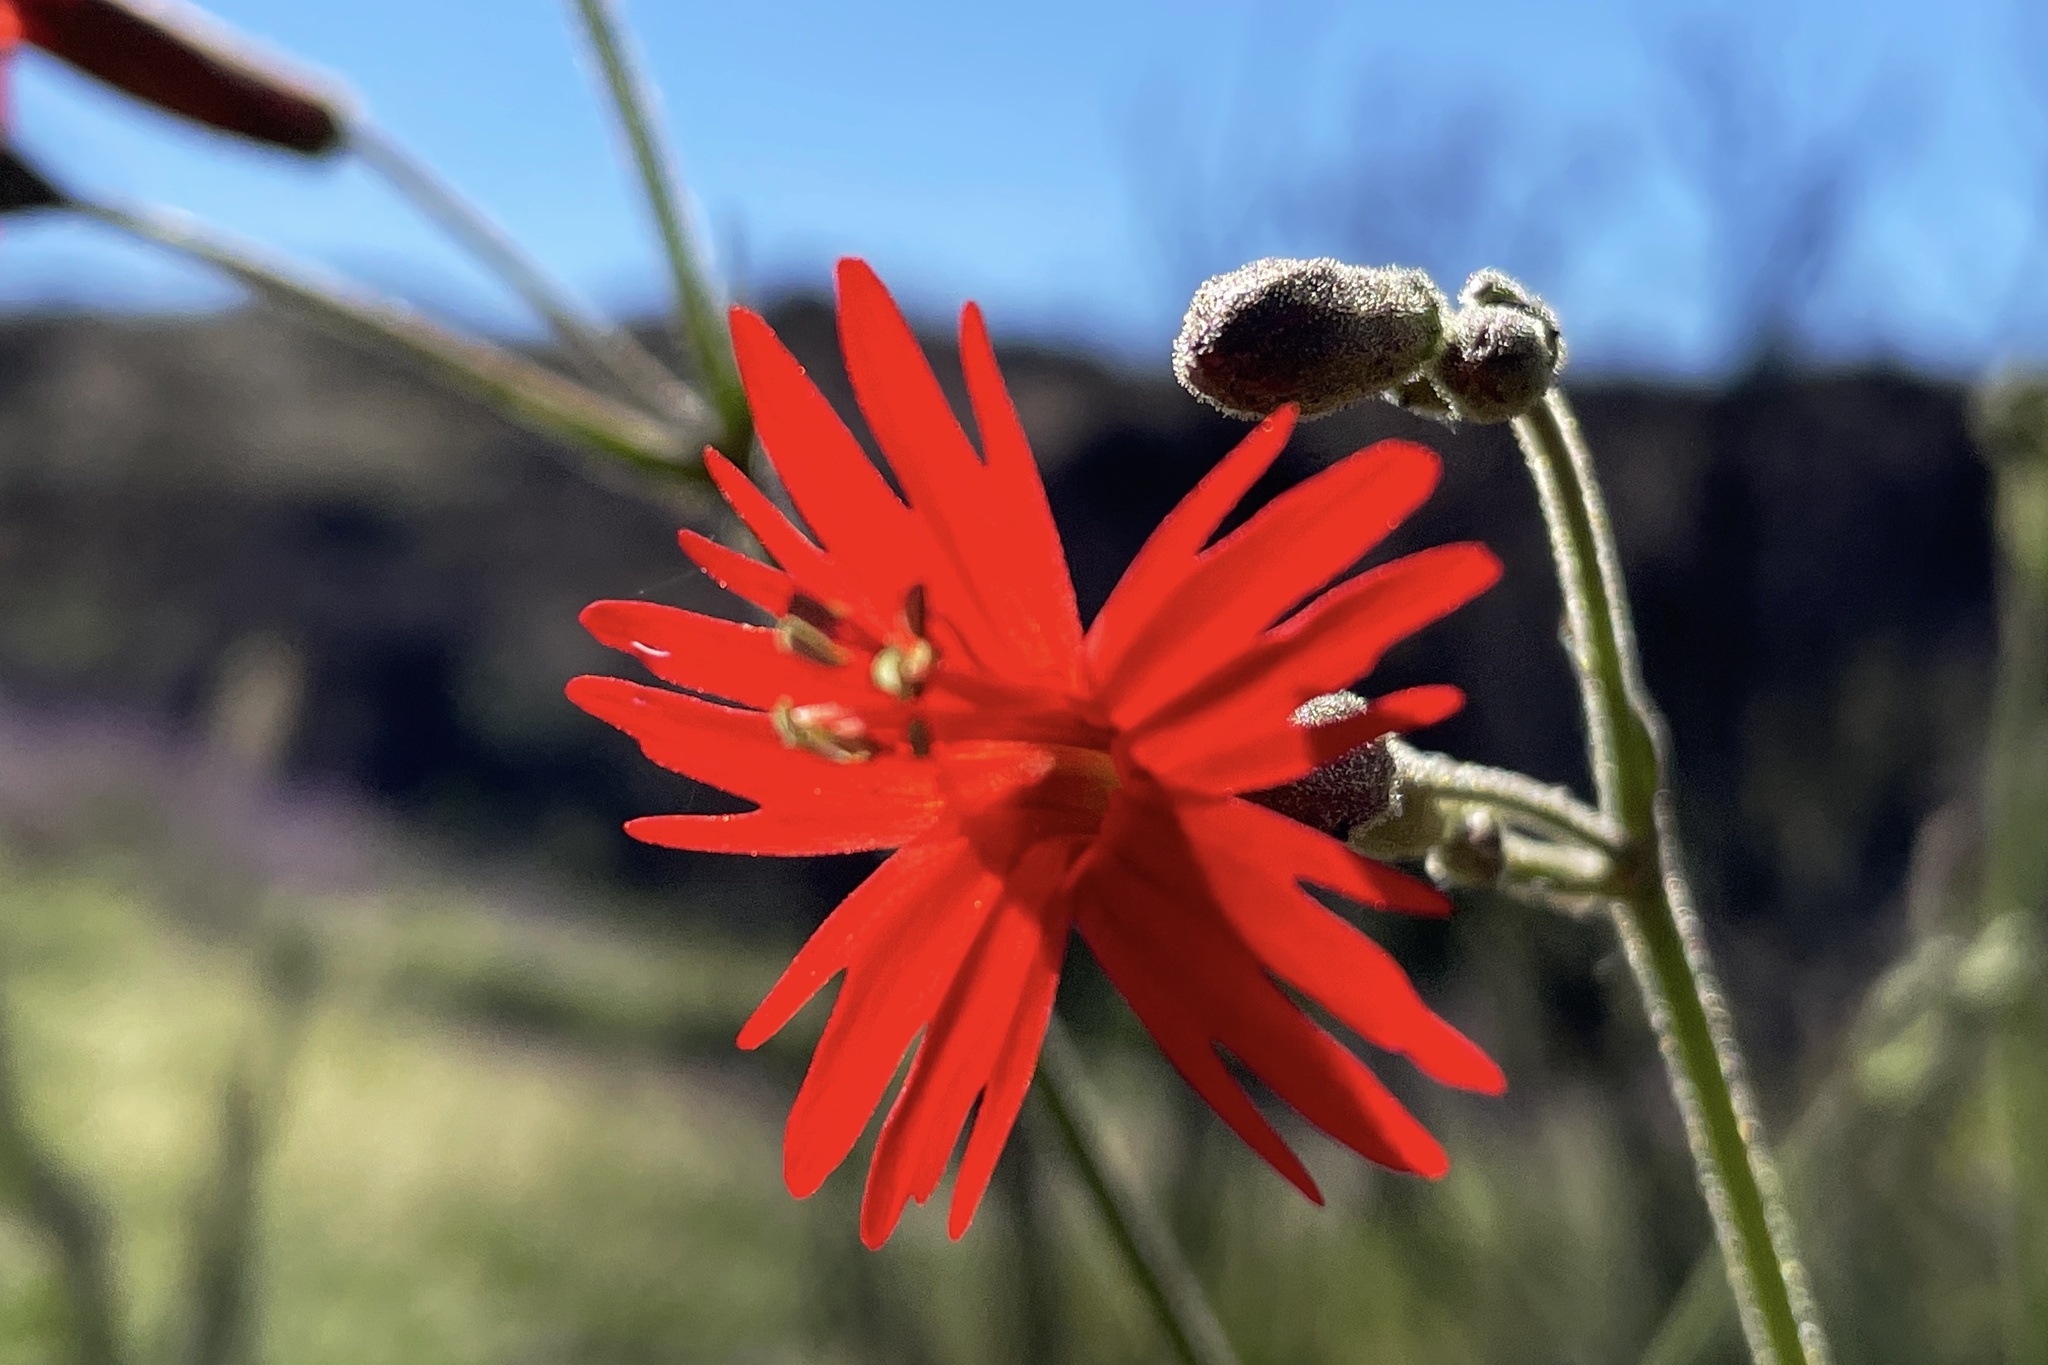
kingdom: Plantae
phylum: Tracheophyta
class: Magnoliopsida
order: Caryophyllales
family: Caryophyllaceae
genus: Silene
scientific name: Silene laciniata
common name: Indian-pink
